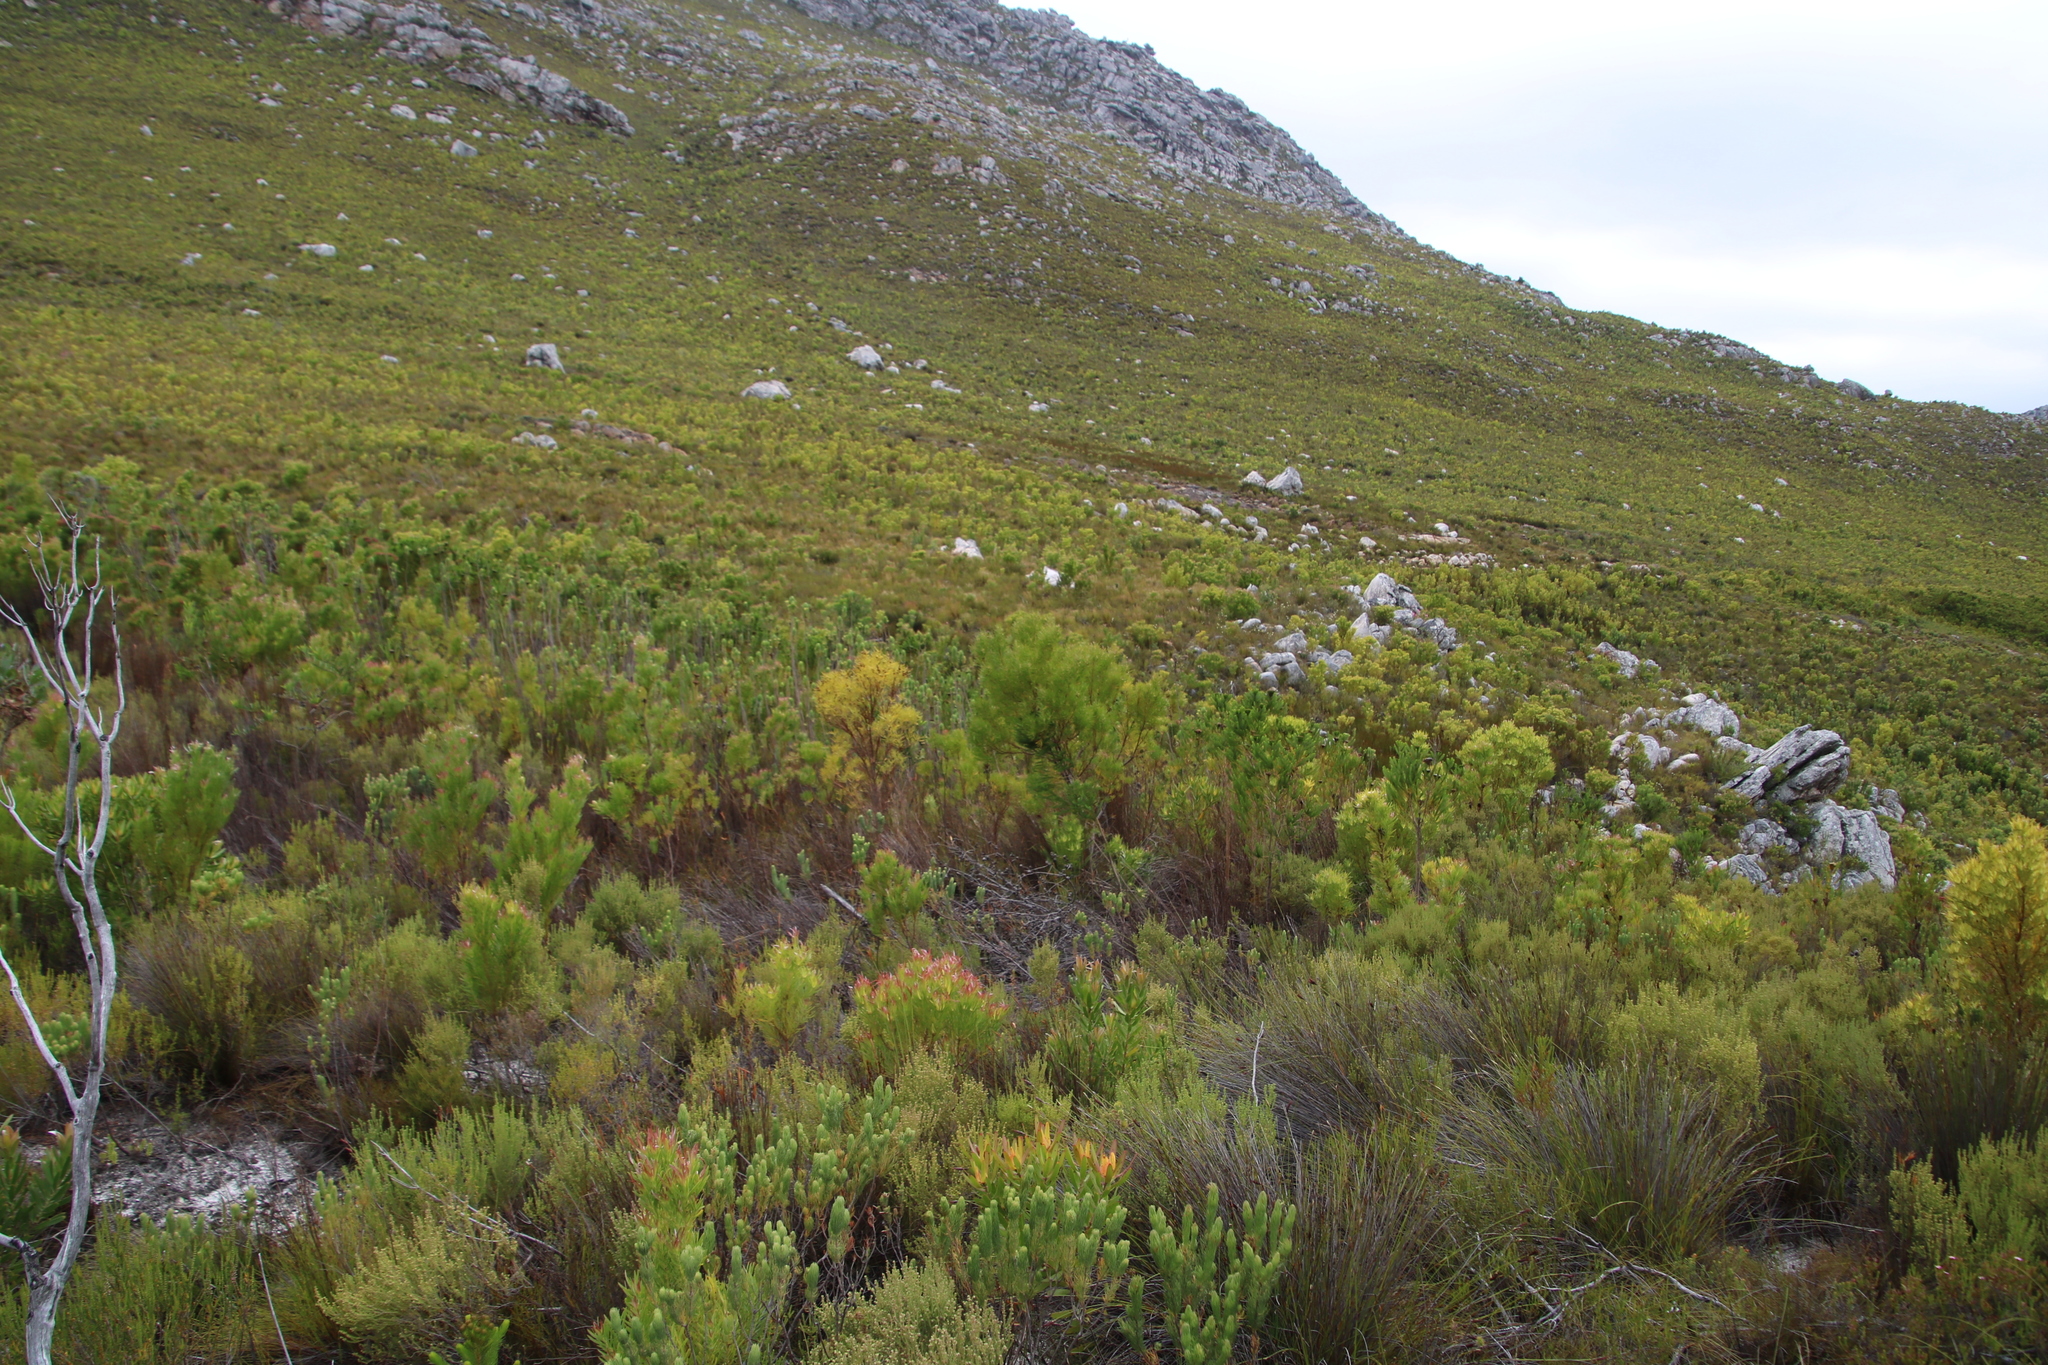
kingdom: Plantae
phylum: Tracheophyta
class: Magnoliopsida
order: Proteales
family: Proteaceae
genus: Leucadendron
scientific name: Leucadendron salicifolium
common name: Common stream conebush
